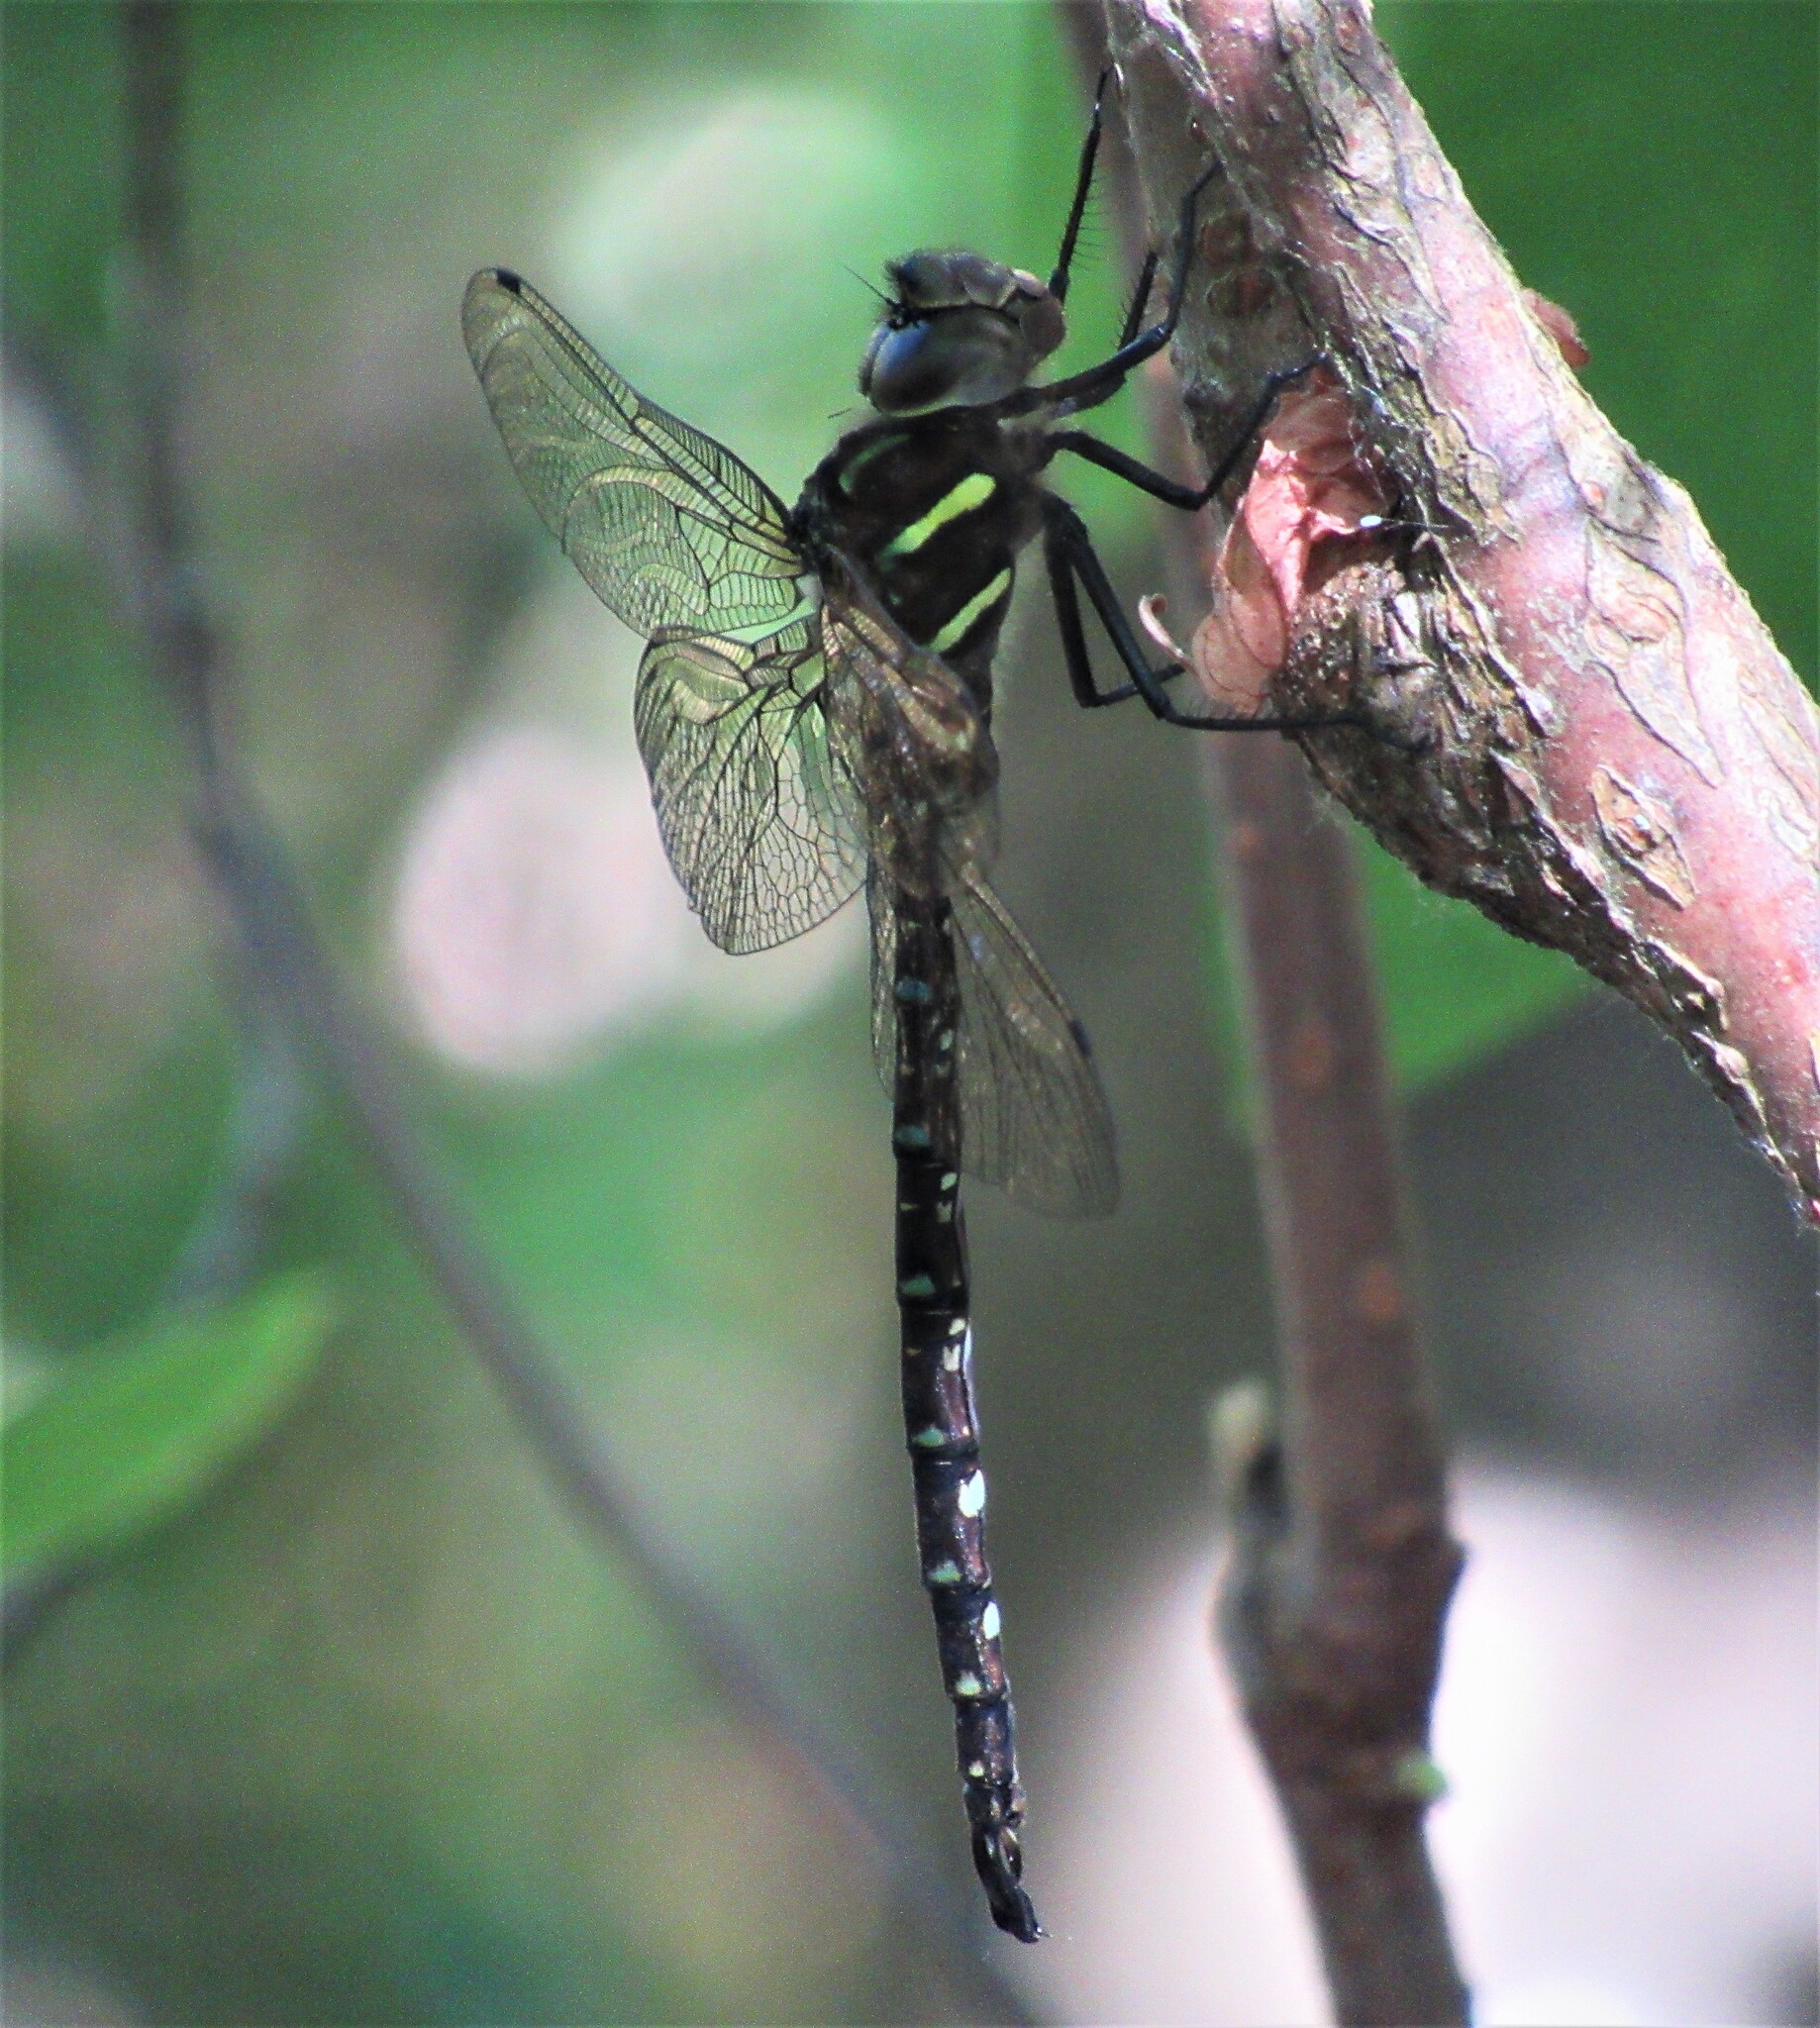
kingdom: Animalia
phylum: Arthropoda
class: Insecta
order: Odonata
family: Aeshnidae
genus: Aeshna
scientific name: Aeshna umbrosa
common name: Shadow darner
